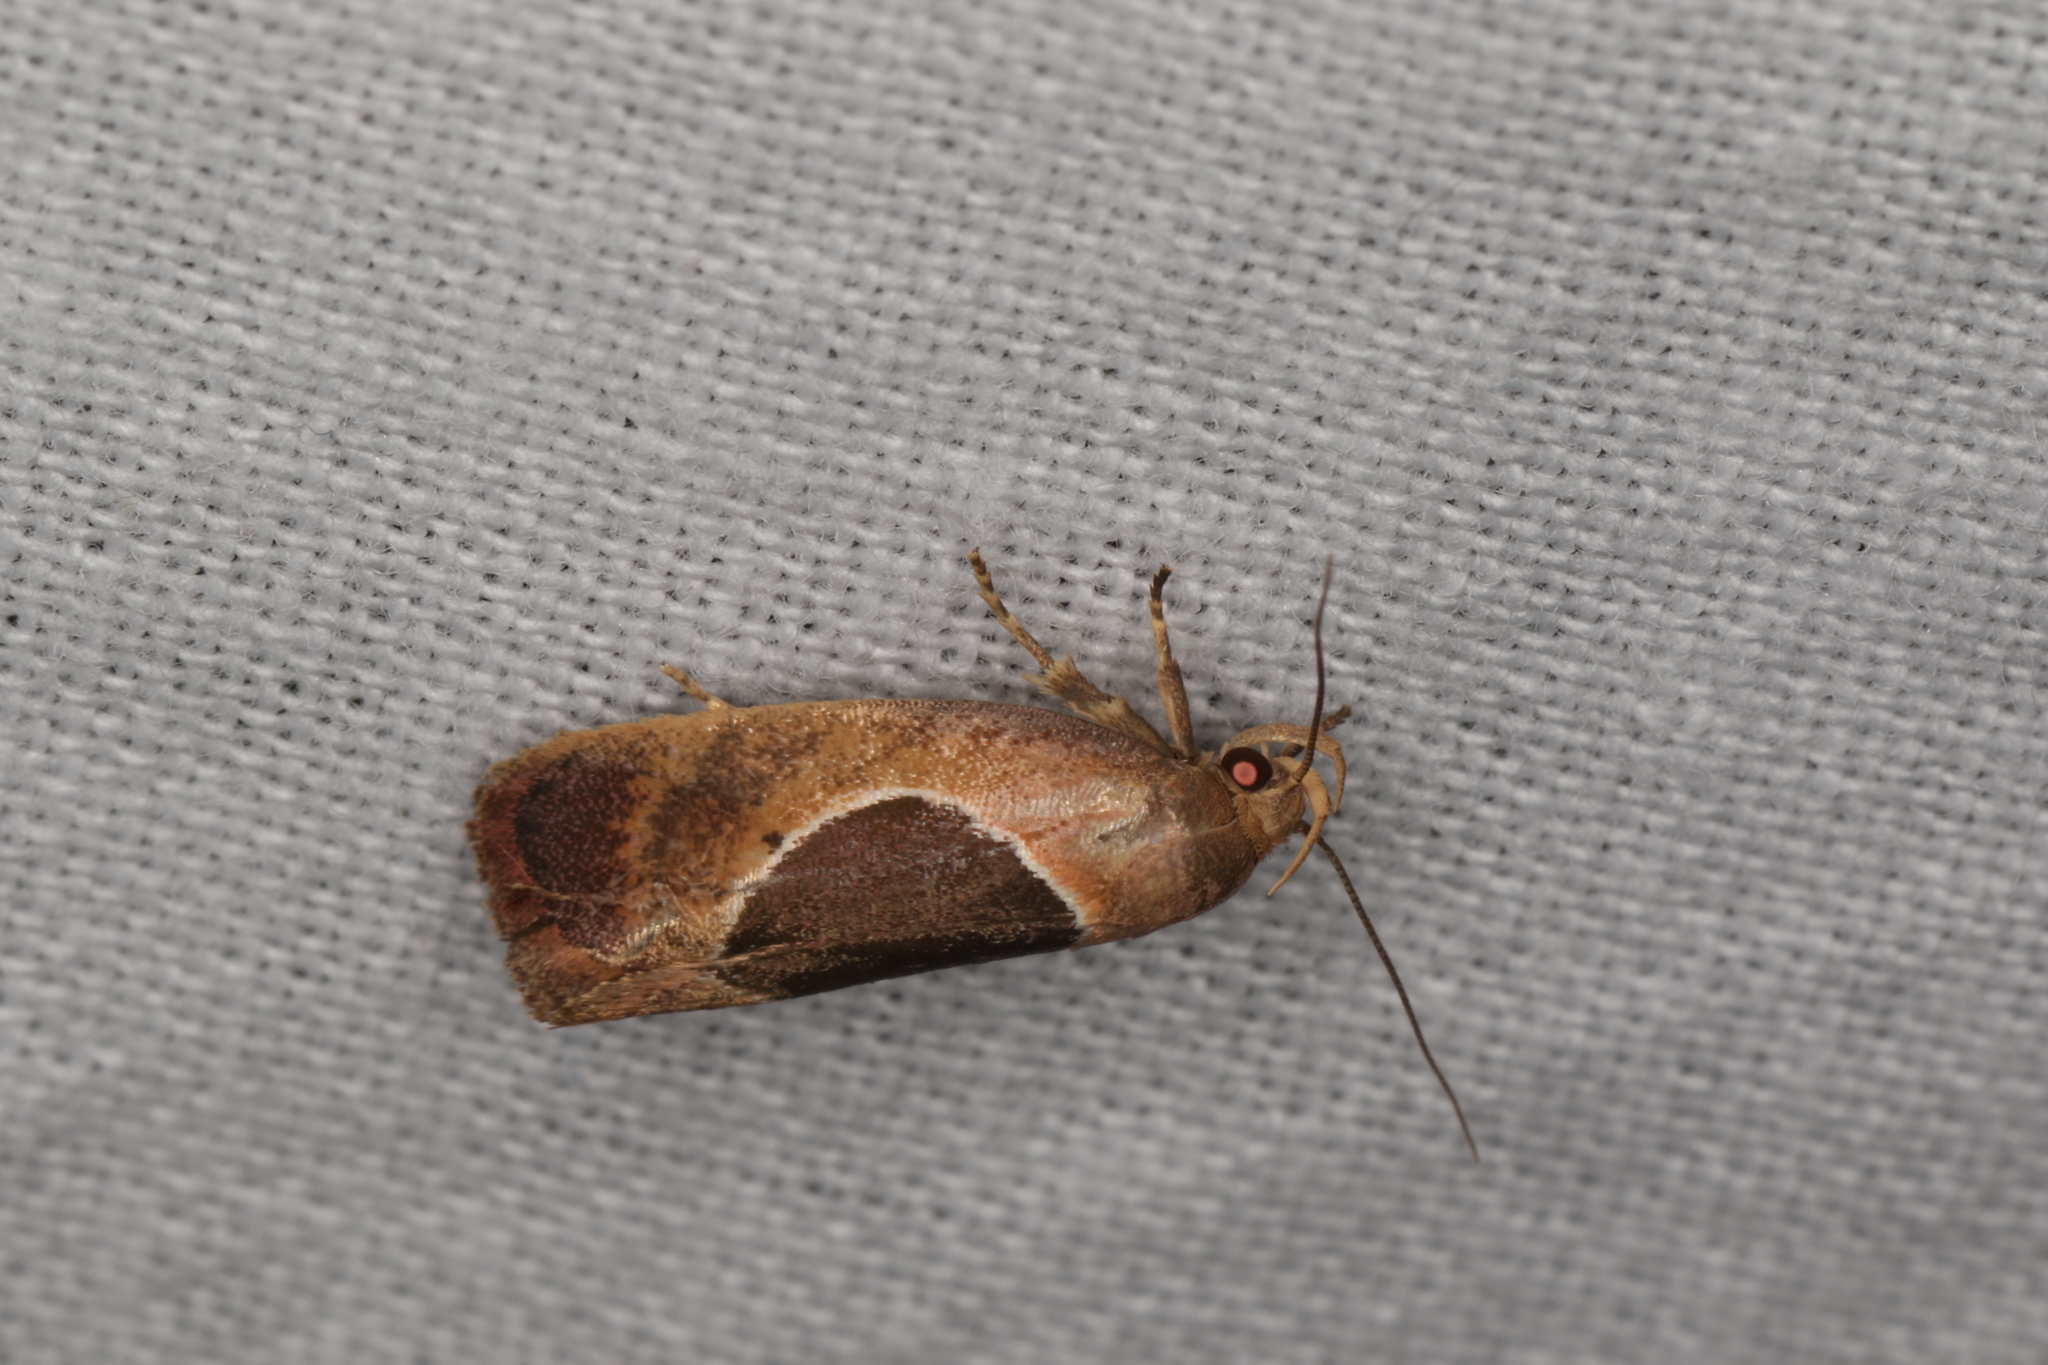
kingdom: Animalia
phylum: Arthropoda
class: Insecta
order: Lepidoptera
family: Oecophoridae
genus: Hoplomorpha
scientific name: Hoplomorpha abalienella
